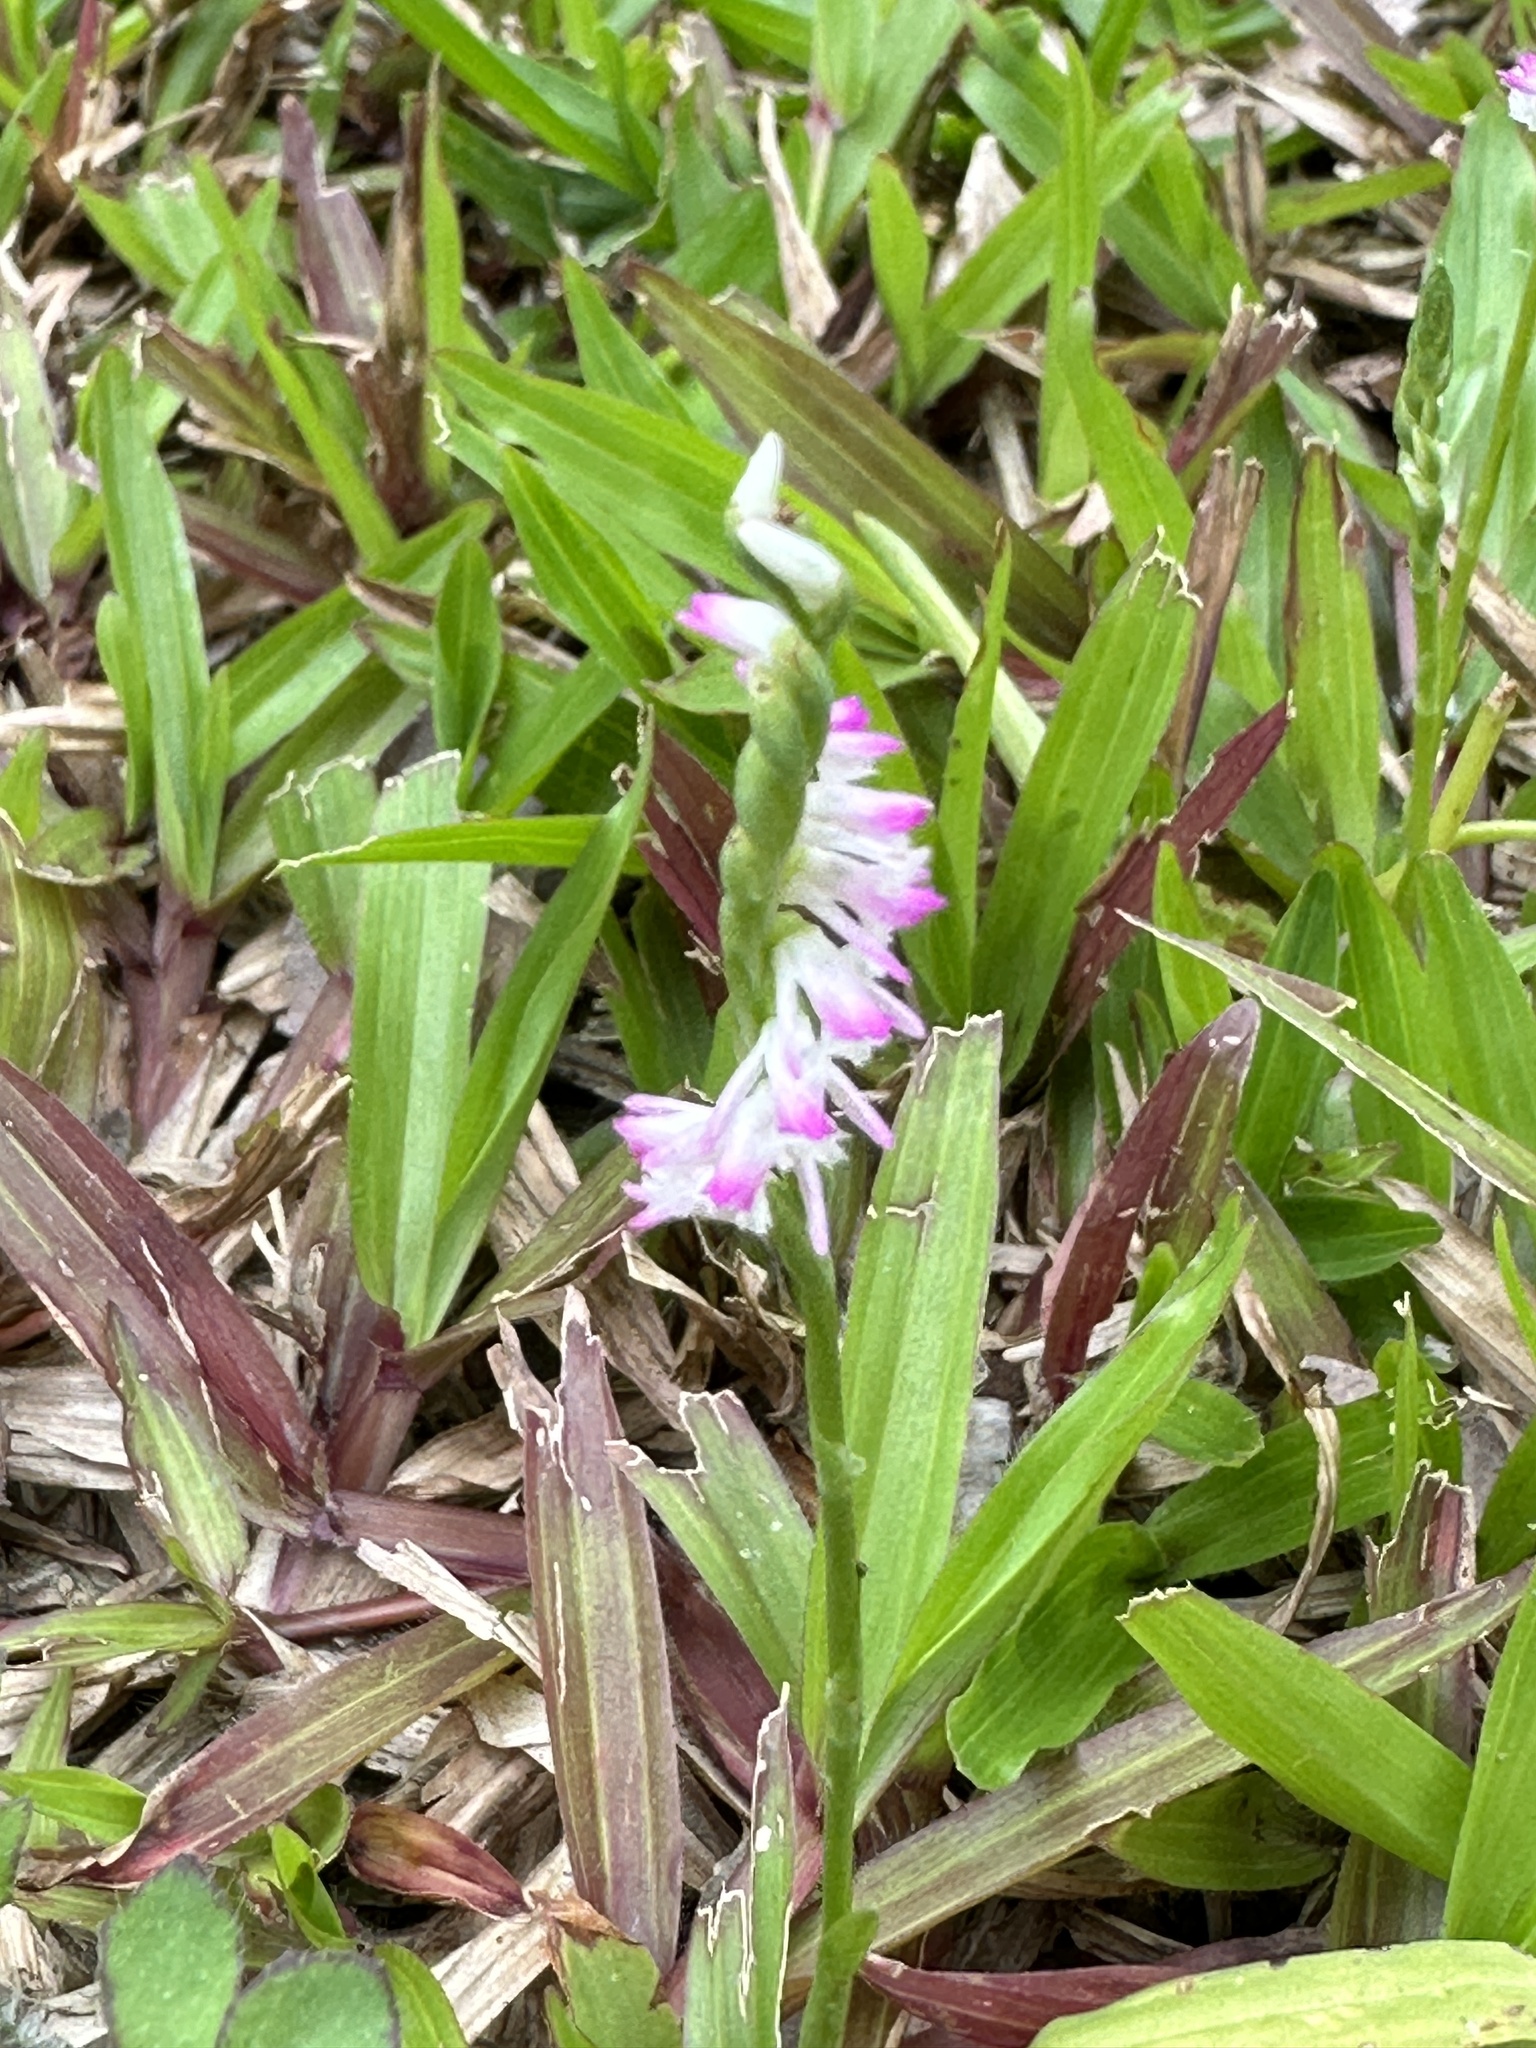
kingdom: Plantae
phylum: Tracheophyta
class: Liliopsida
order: Asparagales
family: Orchidaceae
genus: Spiranthes
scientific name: Spiranthes sinensis
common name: Chinese spiranthes
